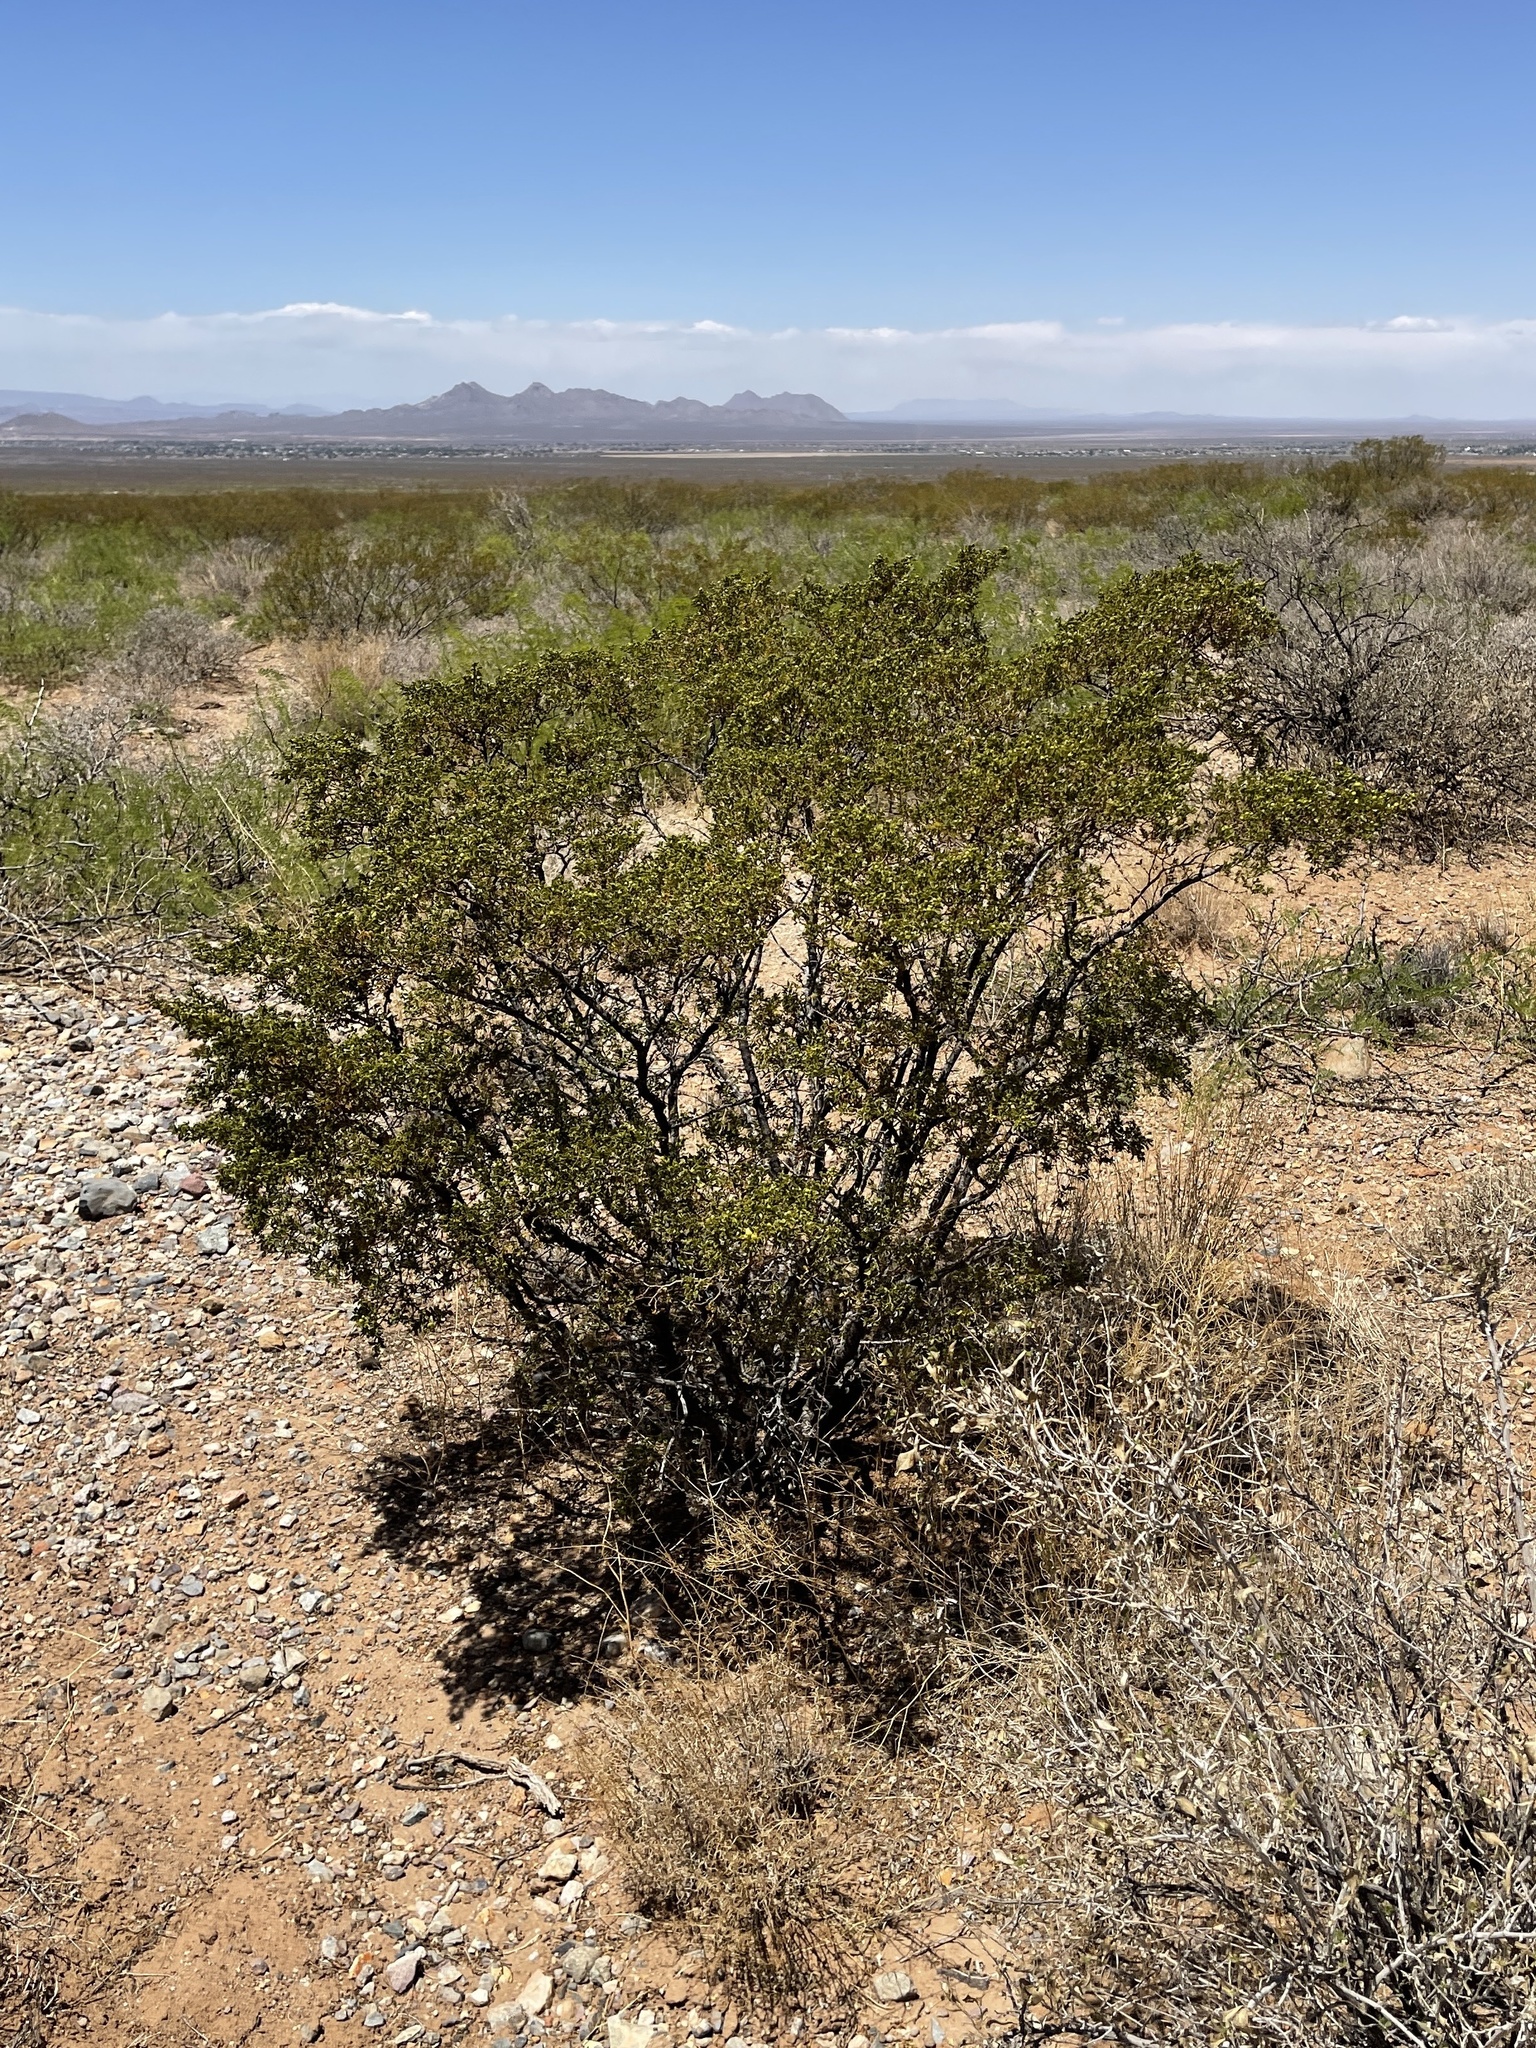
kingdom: Plantae
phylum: Tracheophyta
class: Magnoliopsida
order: Zygophyllales
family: Zygophyllaceae
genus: Larrea
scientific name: Larrea tridentata
